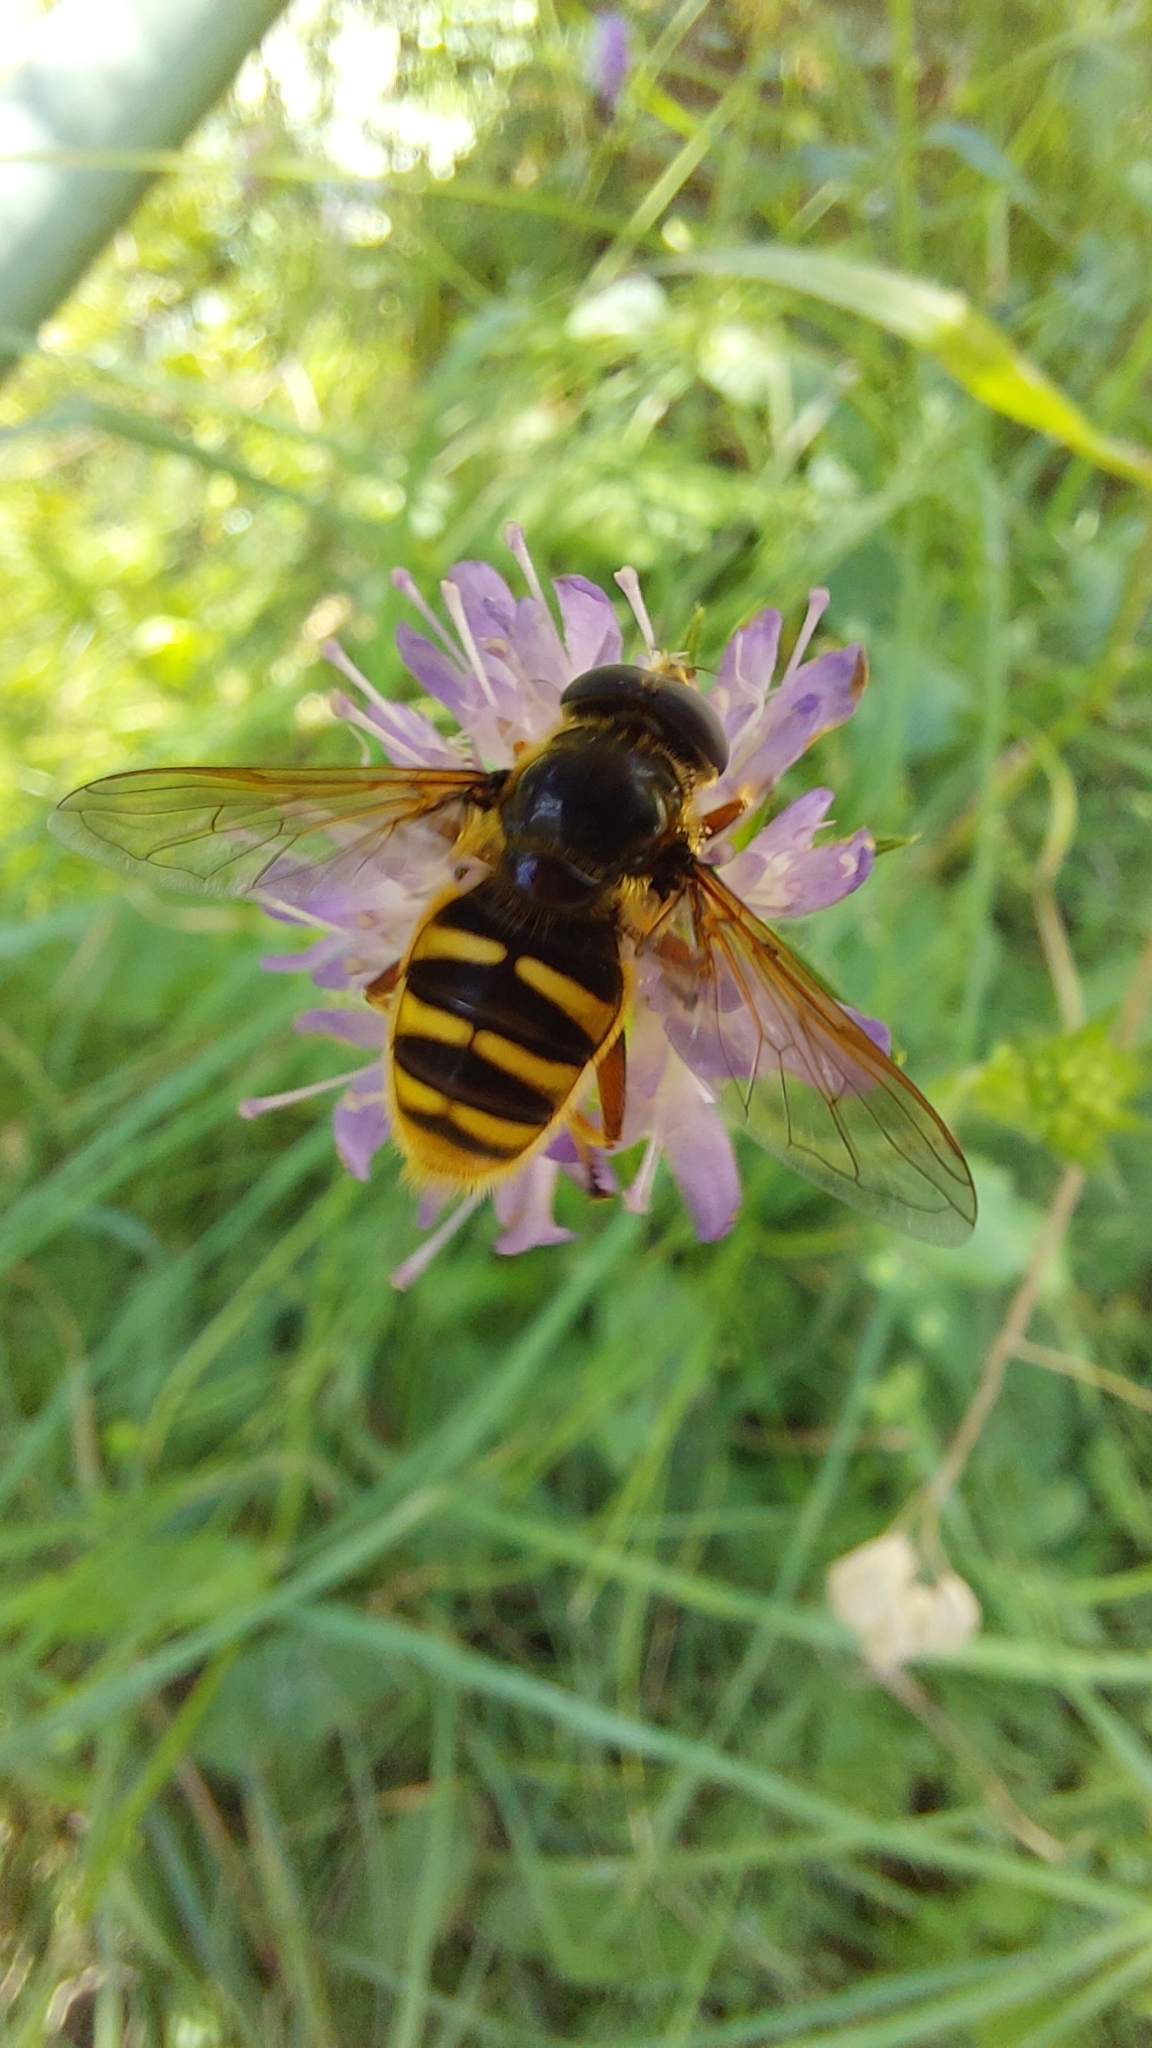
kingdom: Animalia
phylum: Arthropoda
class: Insecta
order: Diptera
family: Syrphidae
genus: Sericomyia
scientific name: Sericomyia silentis
